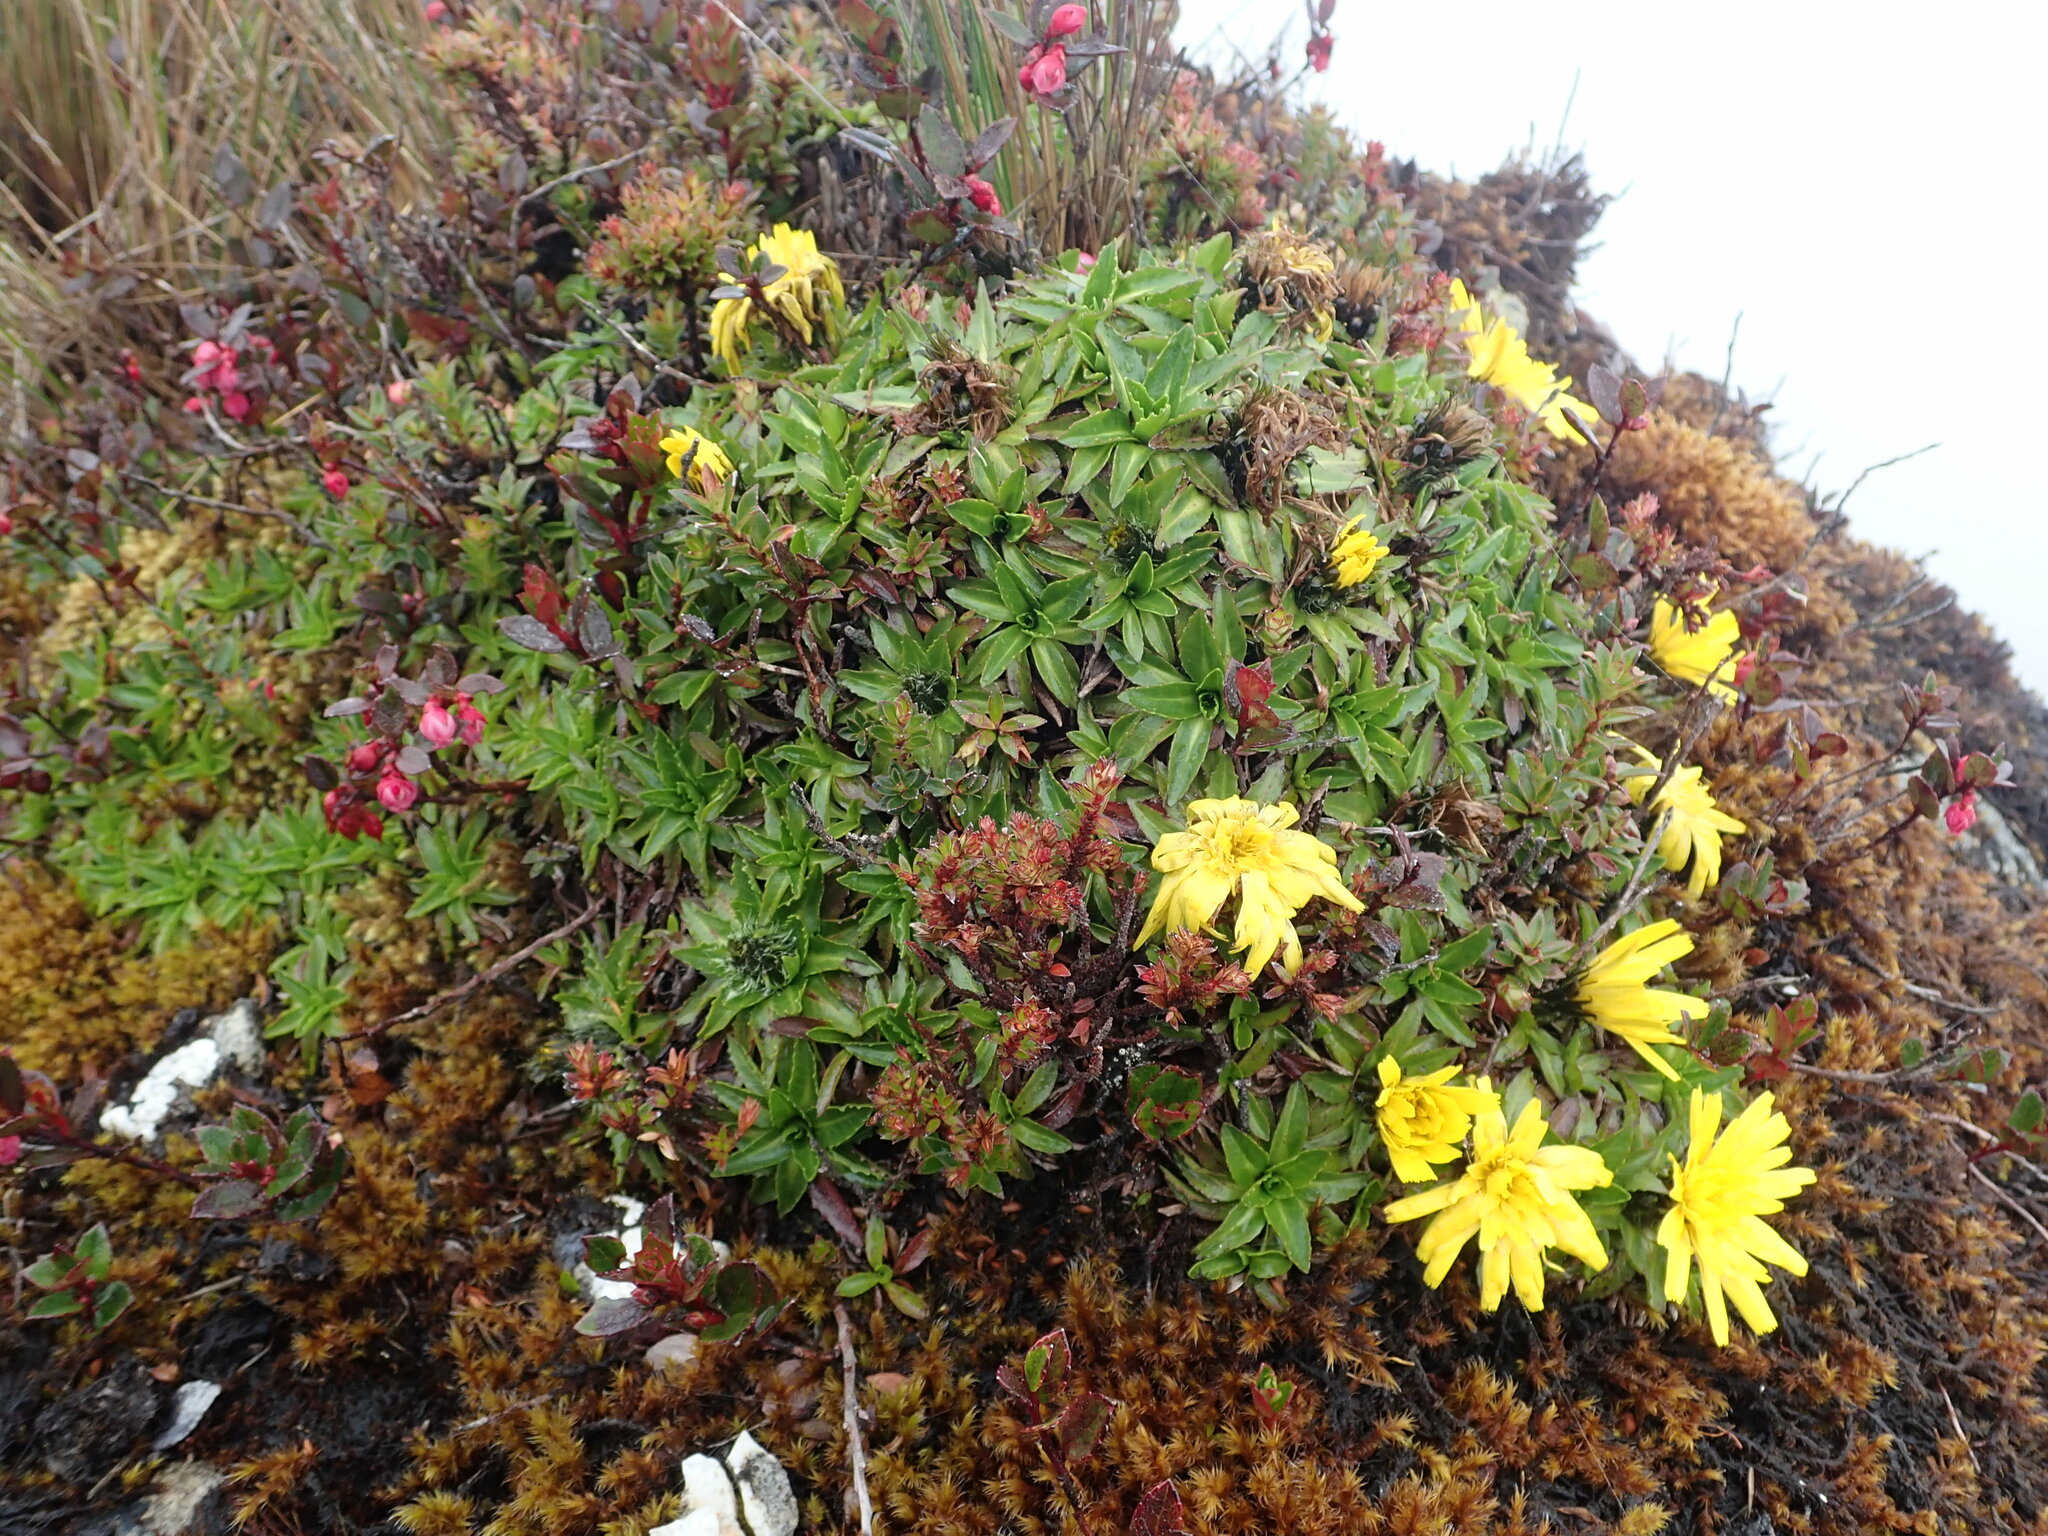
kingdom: Plantae
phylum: Tracheophyta
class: Magnoliopsida
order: Asterales
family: Asteraceae
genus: Hypochaeris
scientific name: Hypochaeris sessiliflora
